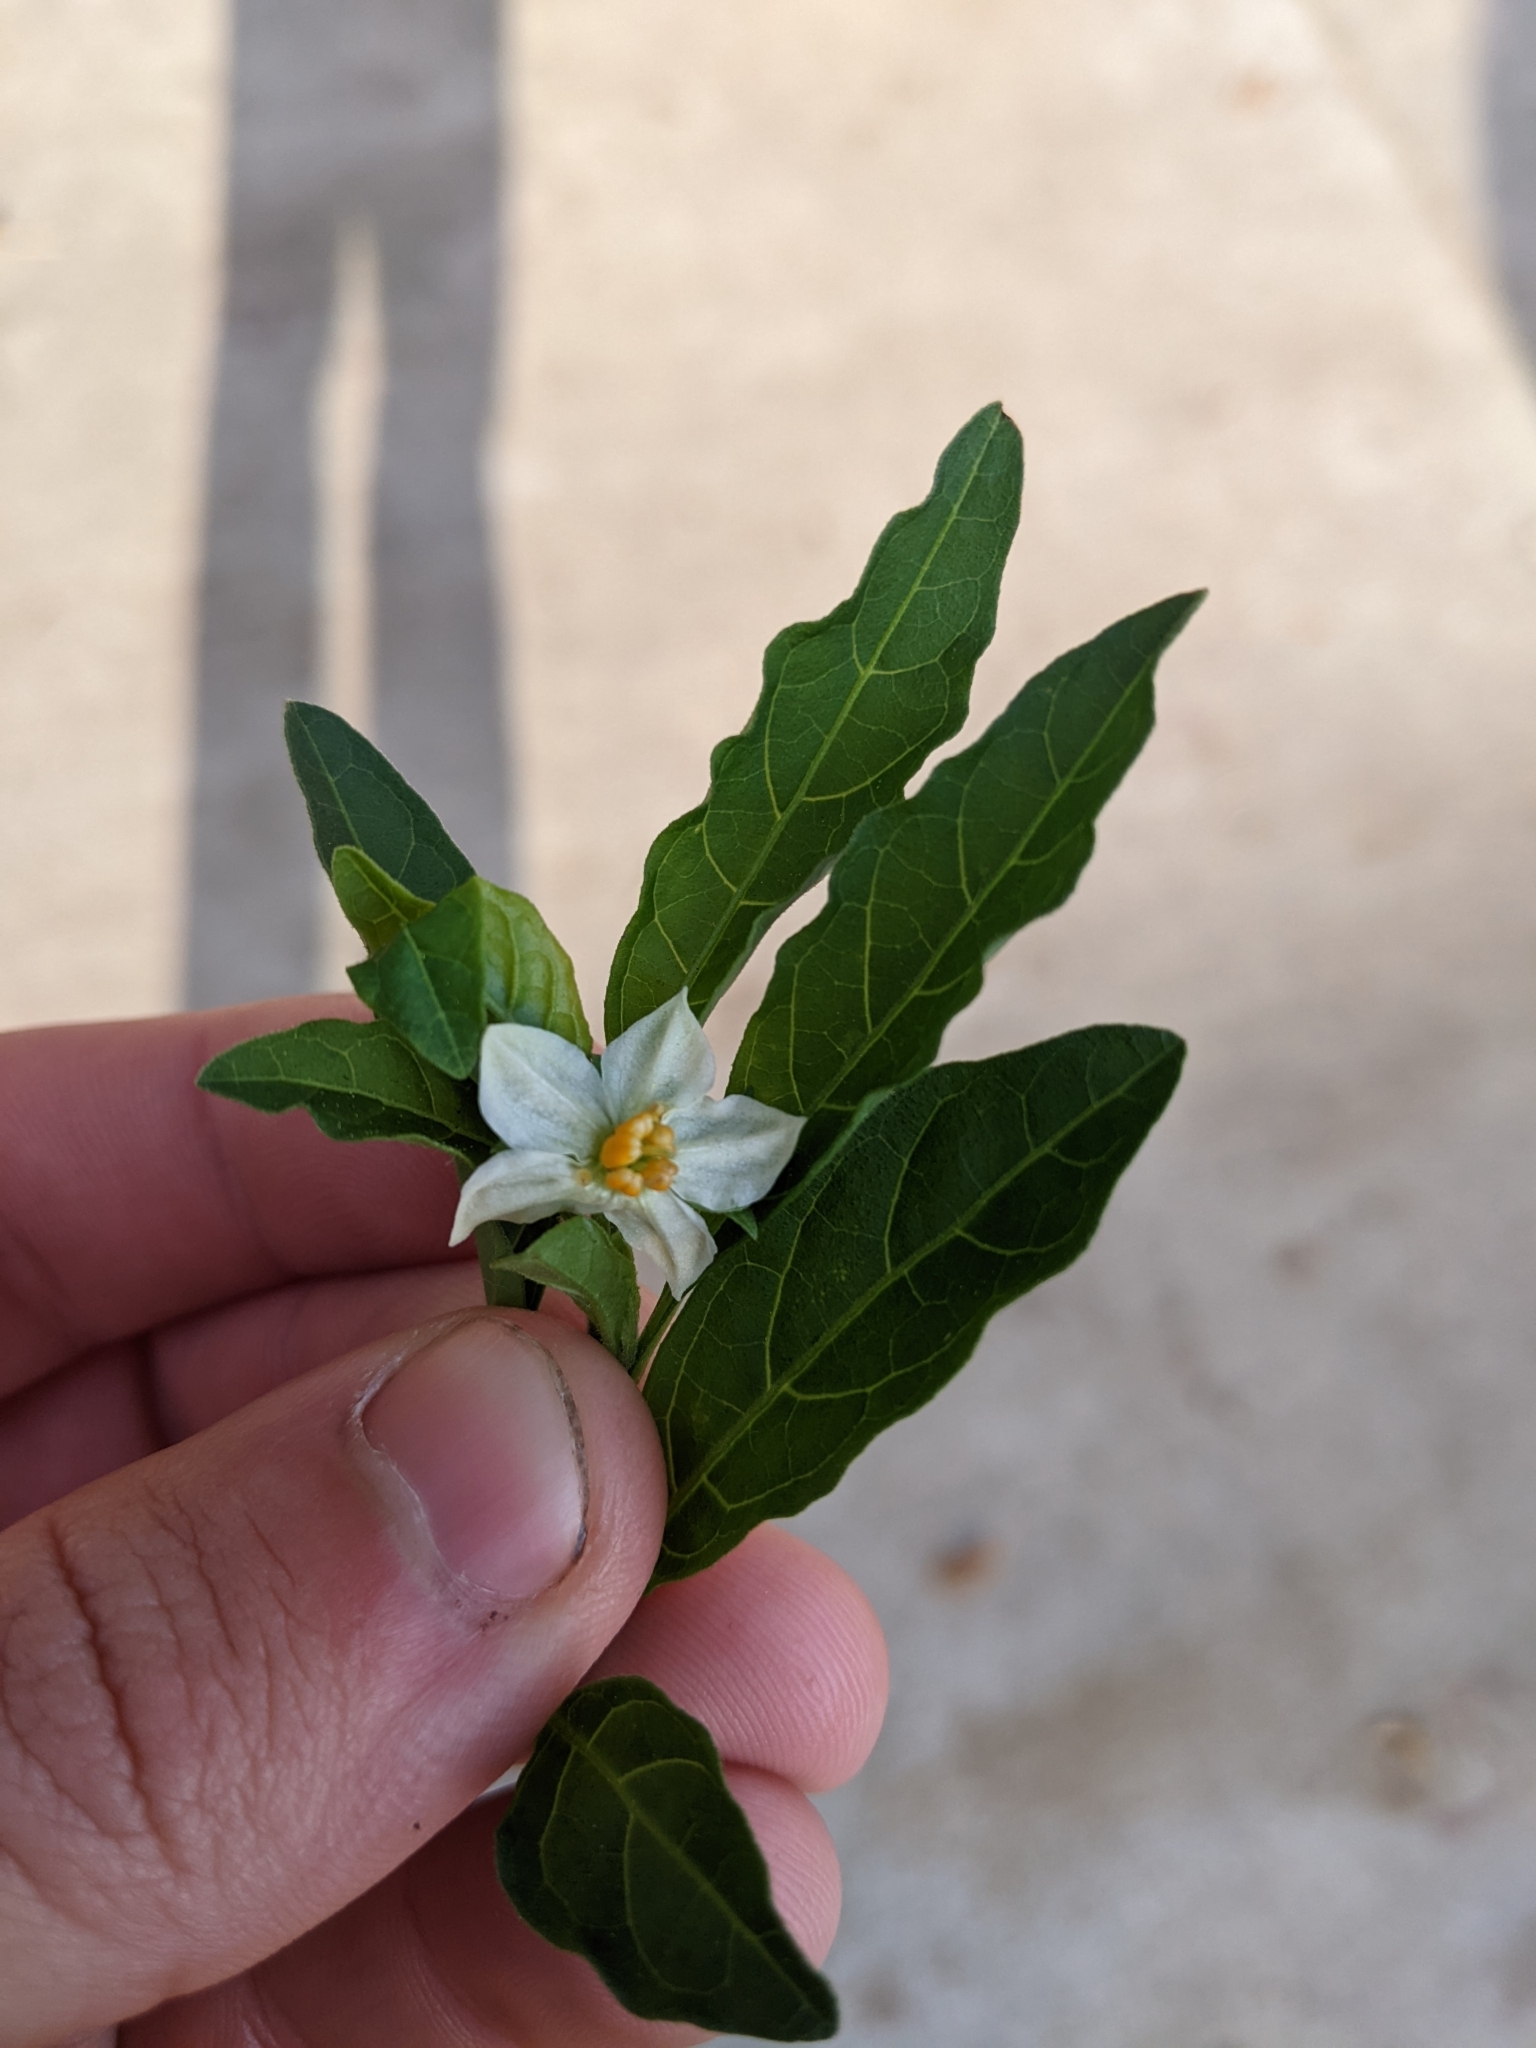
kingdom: Plantae
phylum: Tracheophyta
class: Magnoliopsida
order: Solanales
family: Solanaceae
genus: Solanum
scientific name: Solanum pseudocapsicum
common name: Jerusalem cherry
